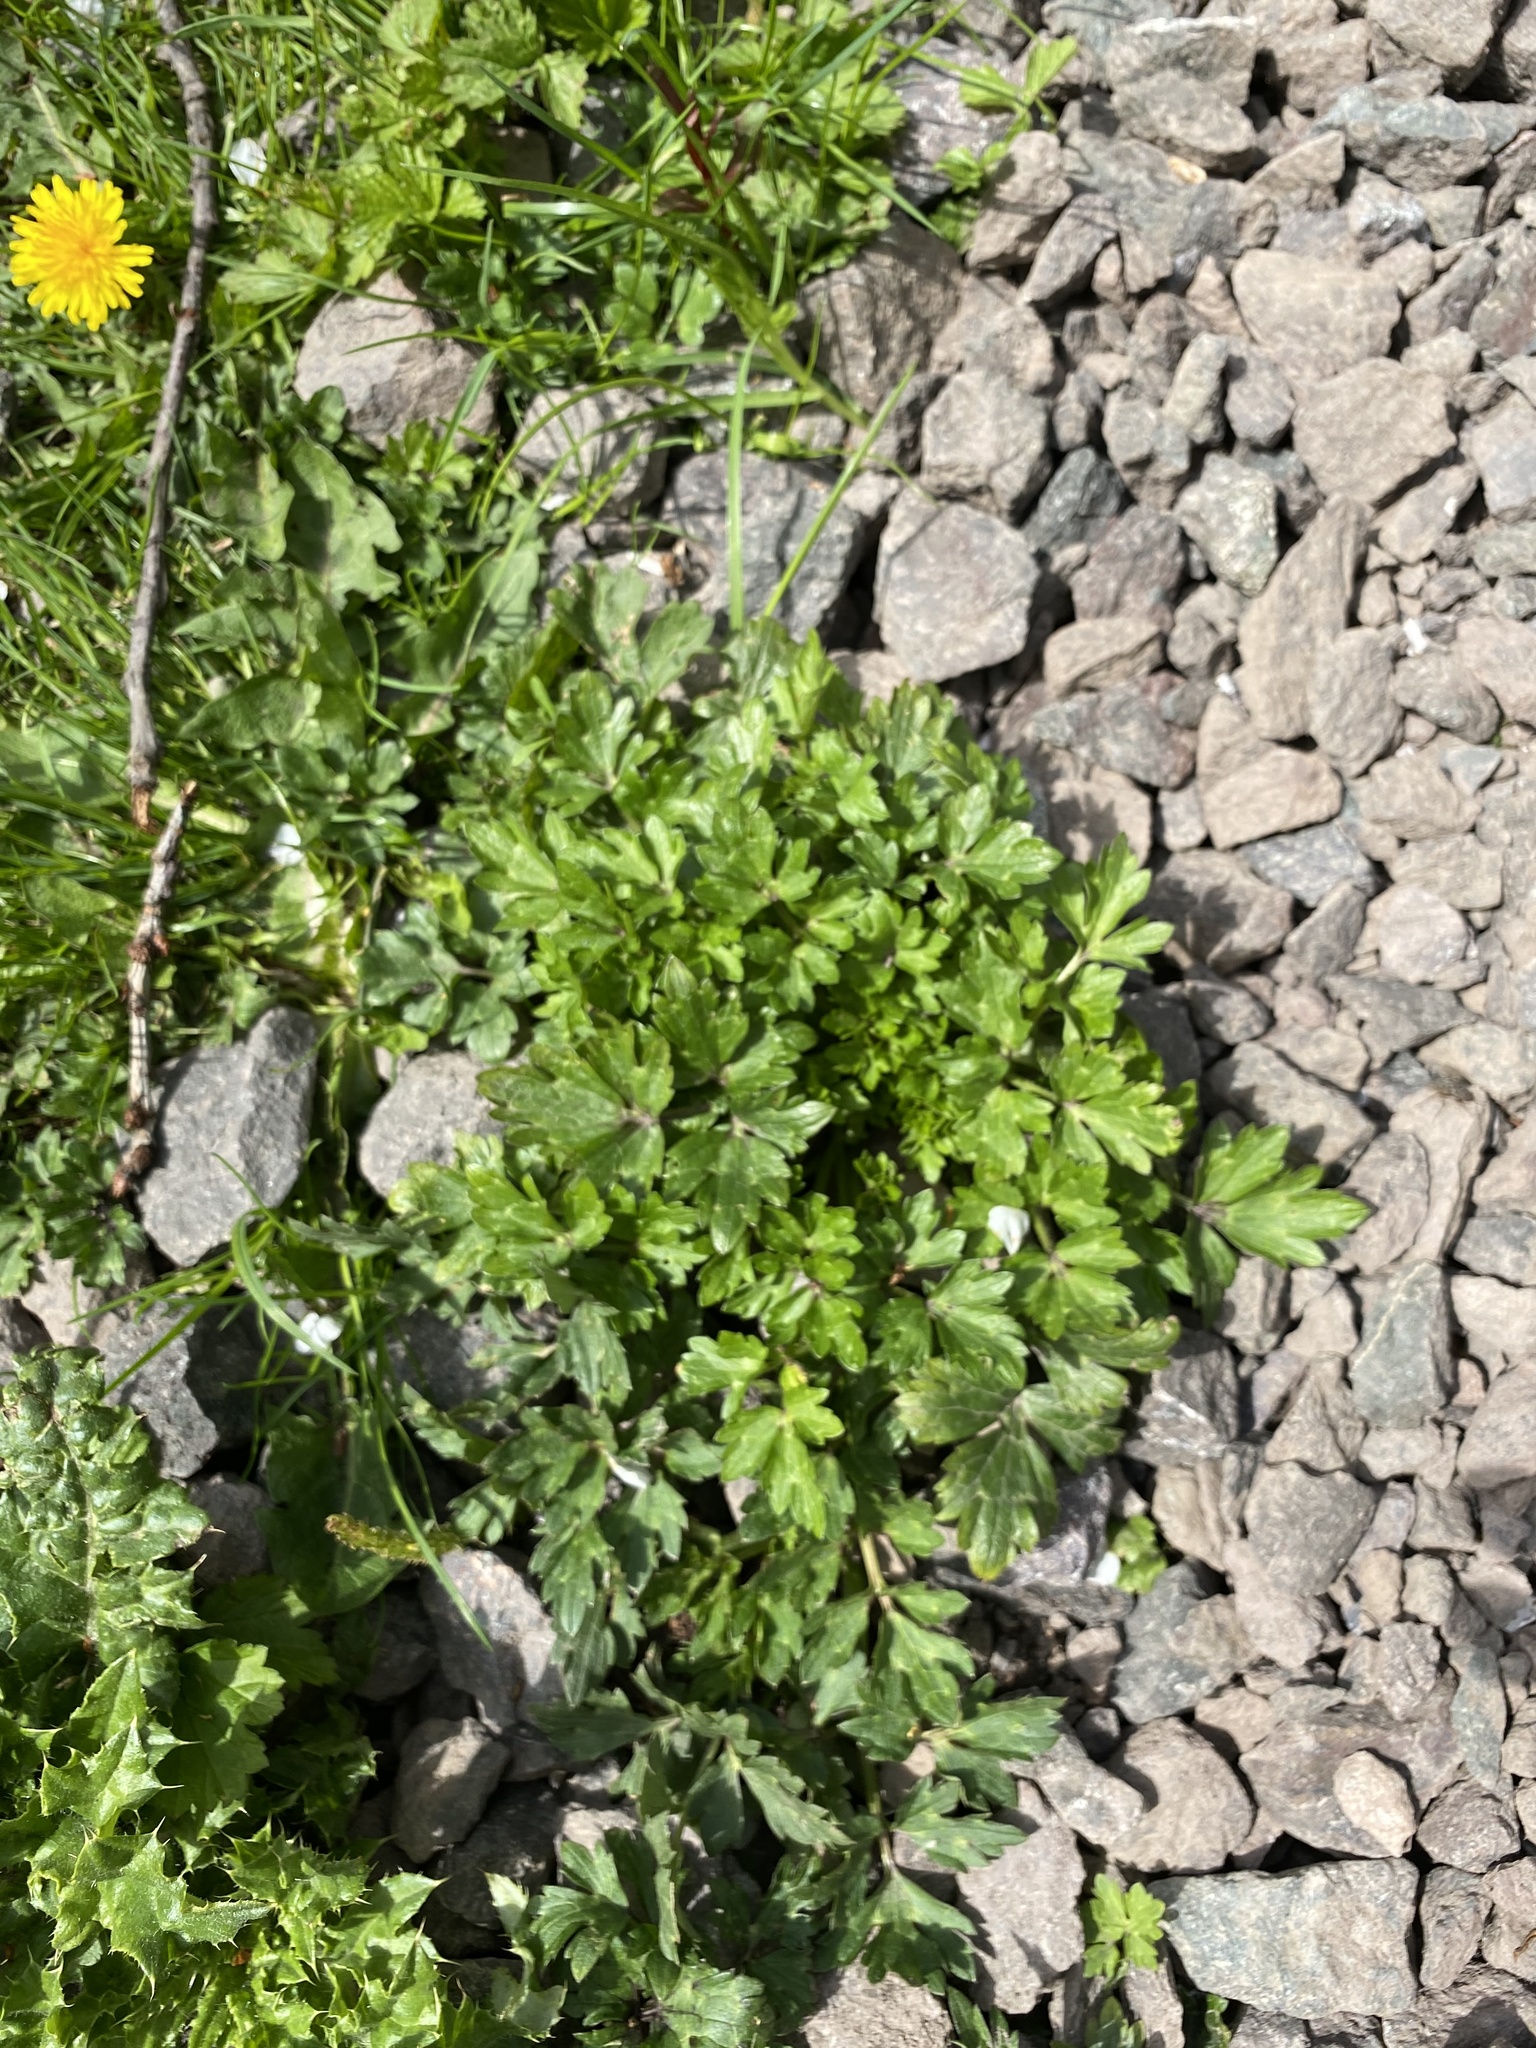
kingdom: Plantae
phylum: Tracheophyta
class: Magnoliopsida
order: Ranunculales
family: Ranunculaceae
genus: Ranunculus
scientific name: Ranunculus repens
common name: Creeping buttercup
